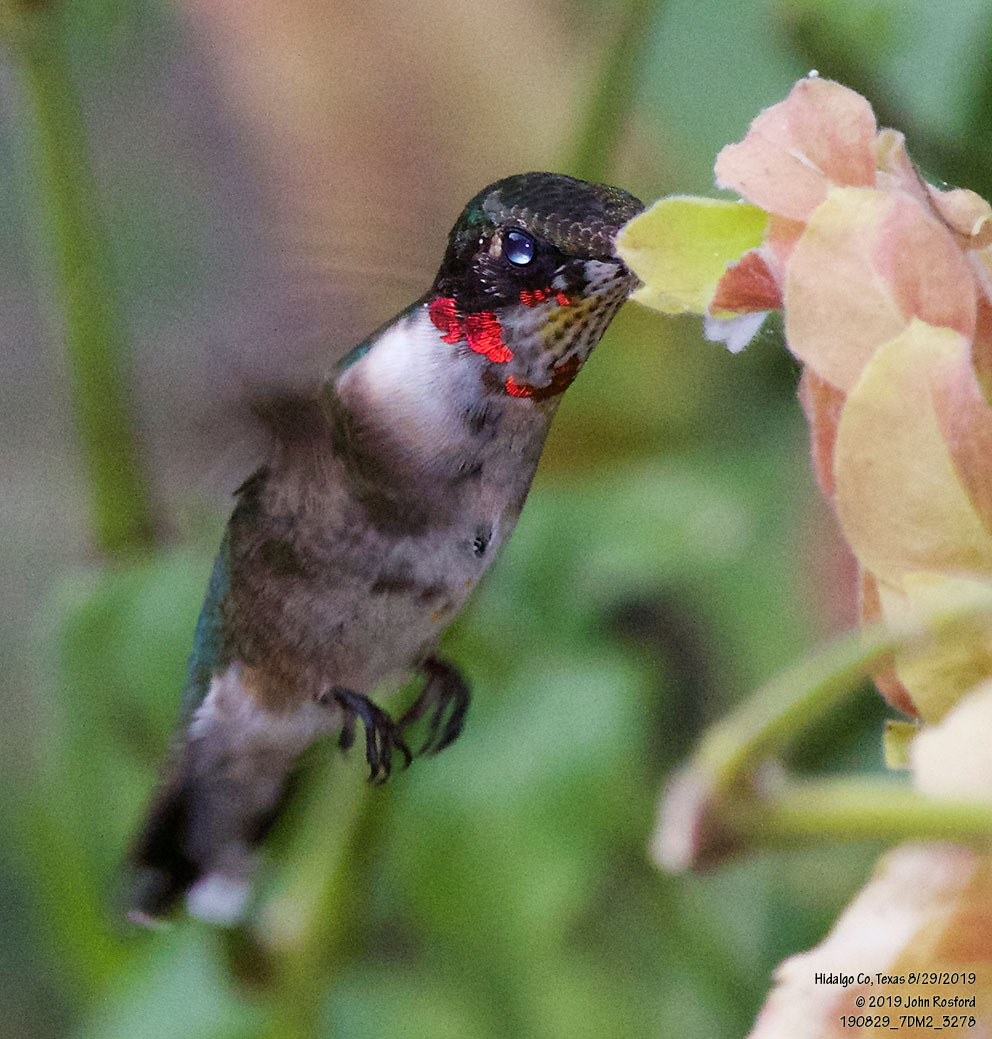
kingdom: Animalia
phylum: Chordata
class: Aves
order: Apodiformes
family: Trochilidae
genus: Archilochus
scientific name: Archilochus colubris
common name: Ruby-throated hummingbird
